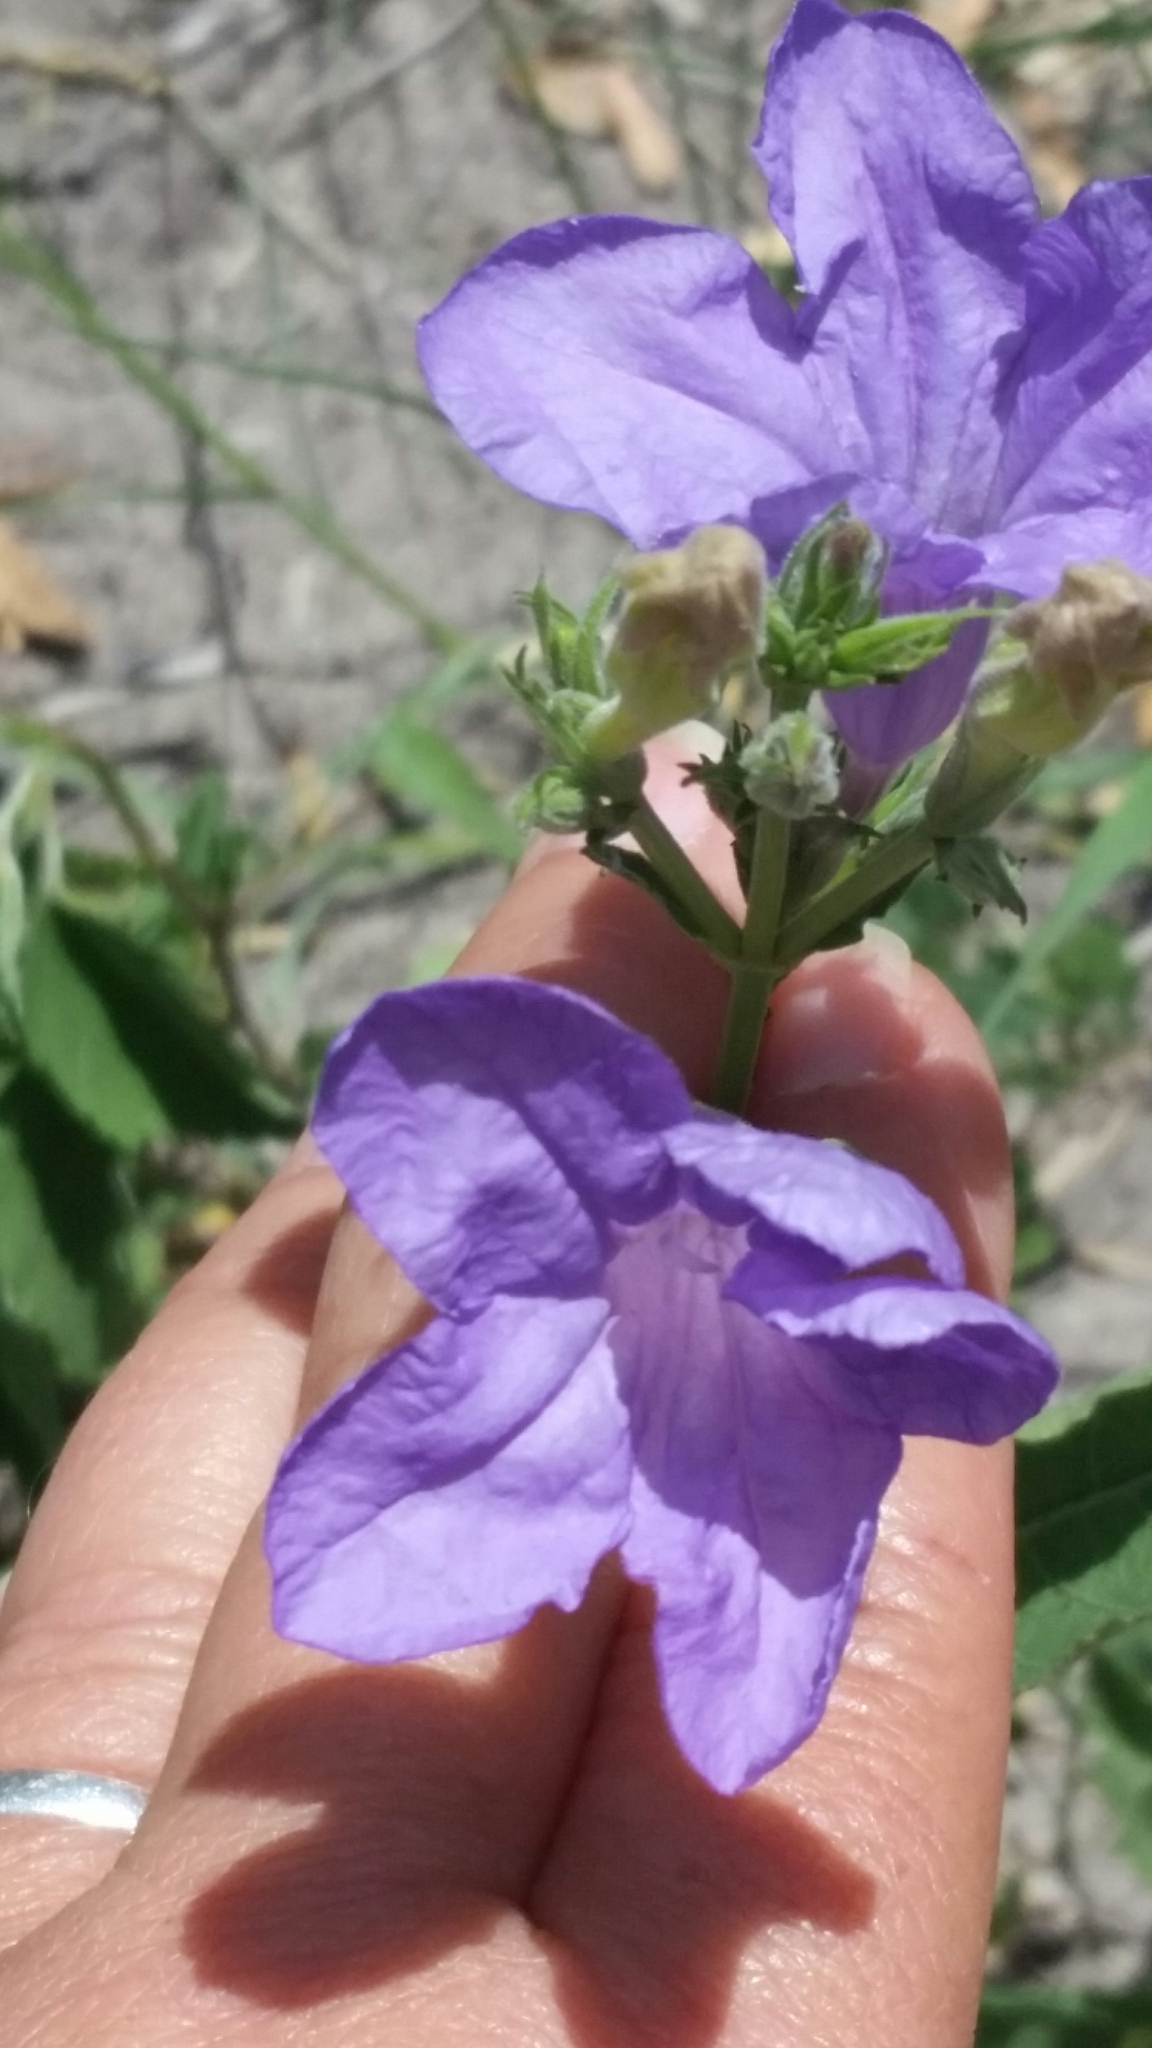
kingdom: Plantae
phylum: Tracheophyta
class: Magnoliopsida
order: Lamiales
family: Acanthaceae
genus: Ruellia
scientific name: Ruellia ciliatiflora
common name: Hairyflower wild petunia
